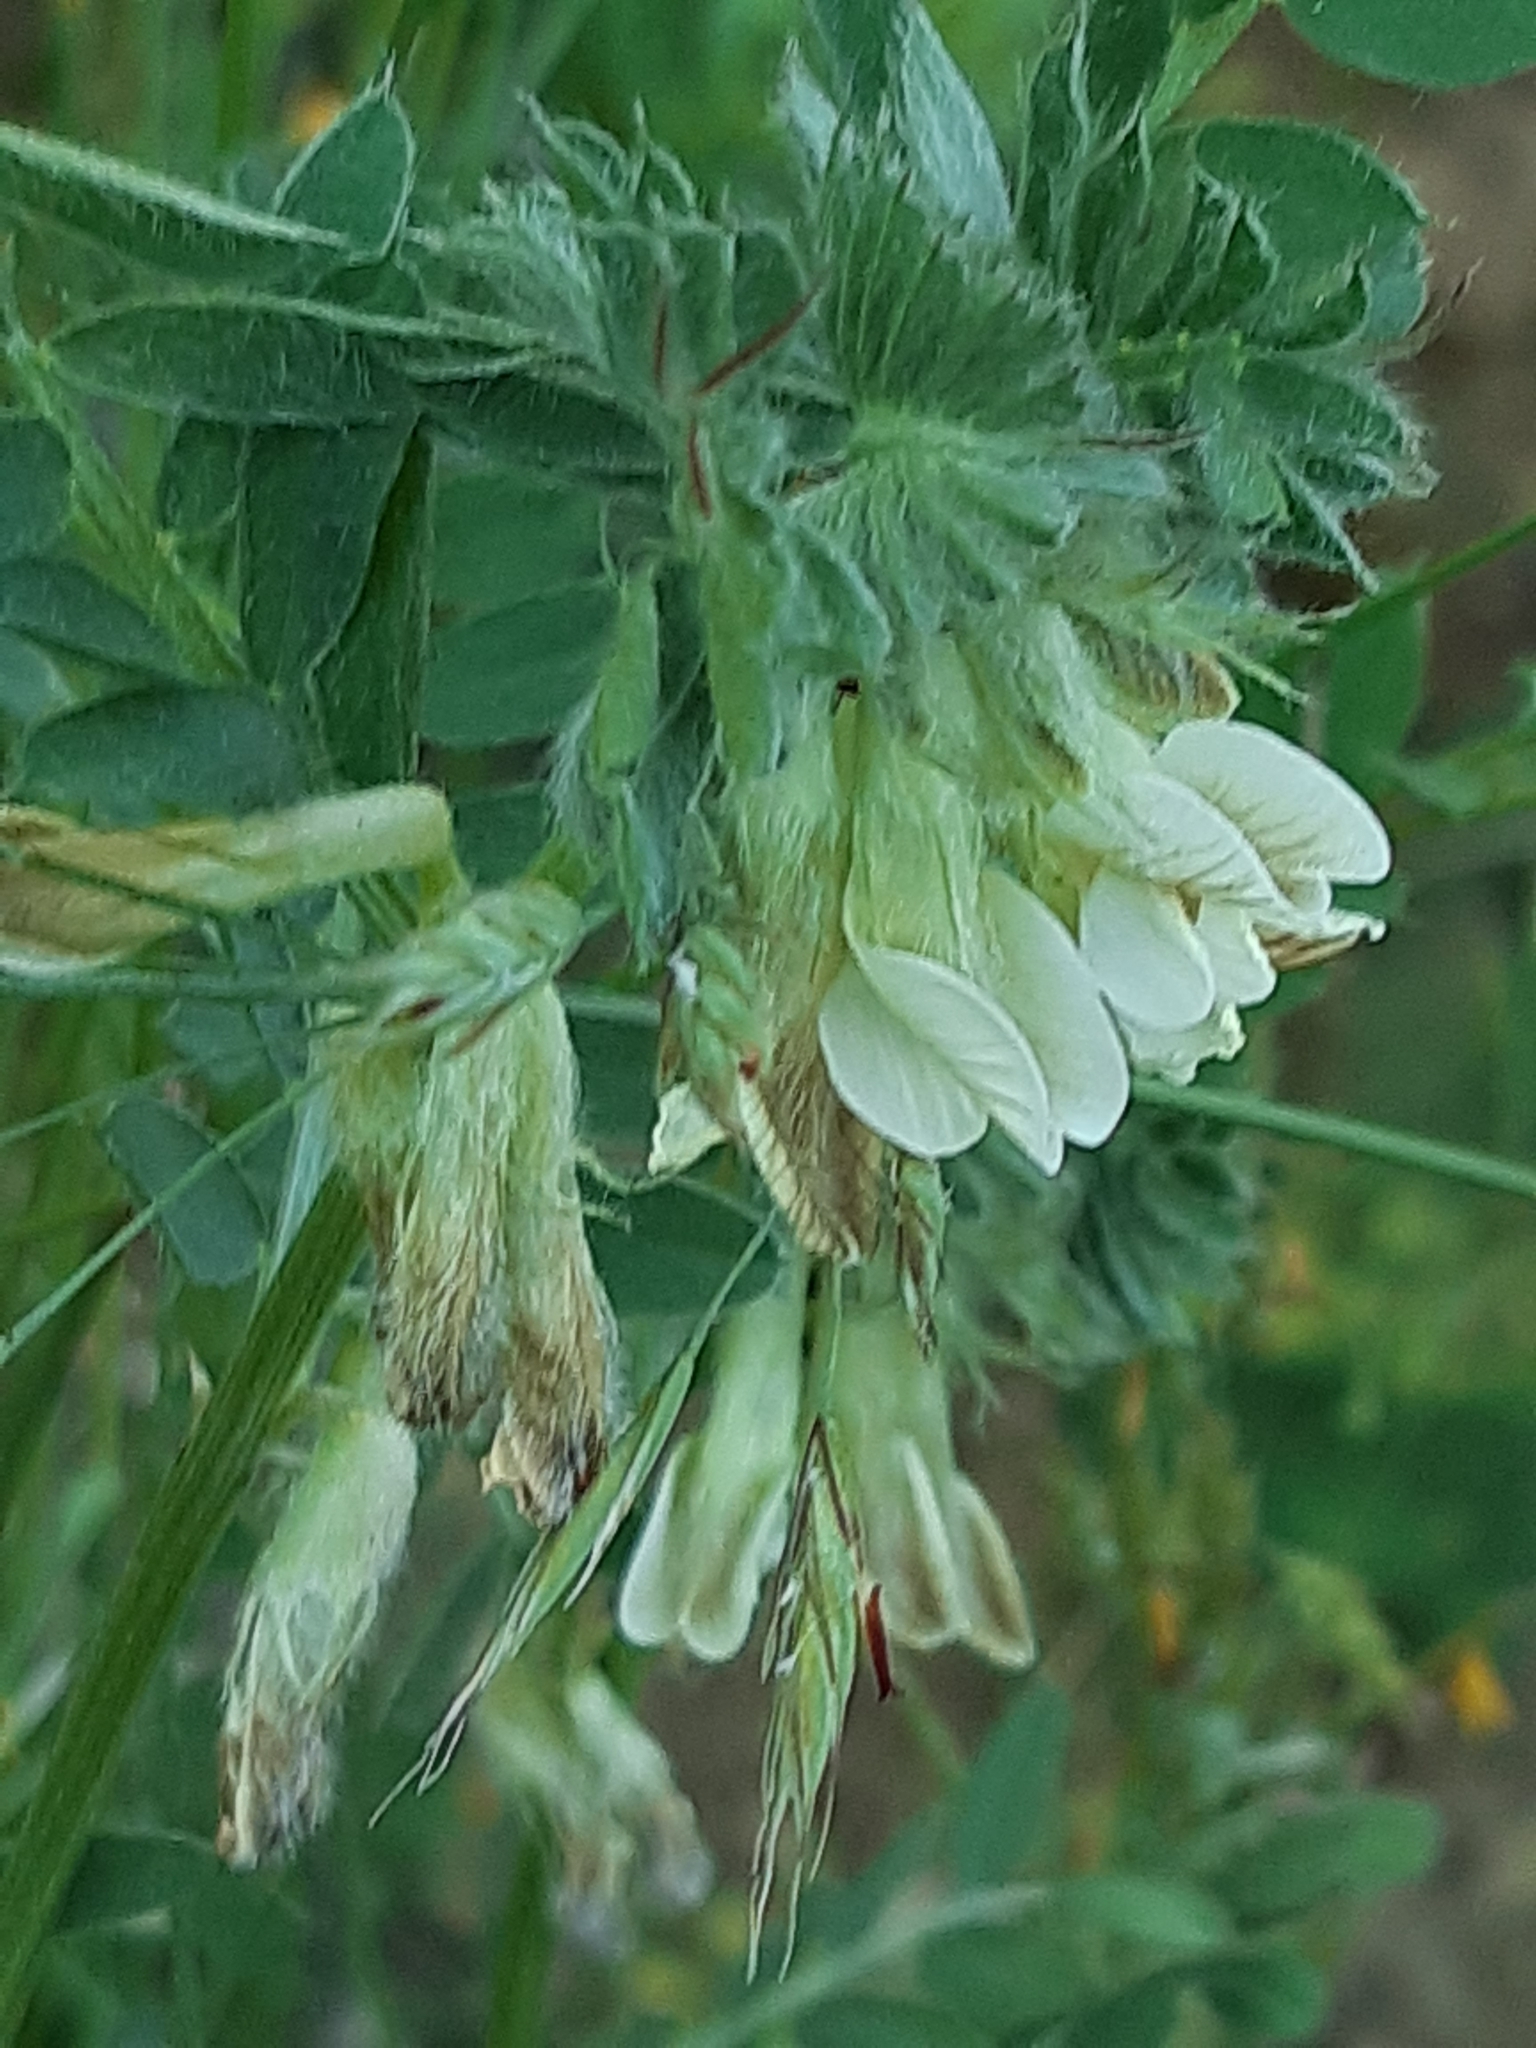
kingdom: Plantae
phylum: Tracheophyta
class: Magnoliopsida
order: Fabales
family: Fabaceae
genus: Vicia
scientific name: Vicia pannonica
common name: Hungarian vetch
